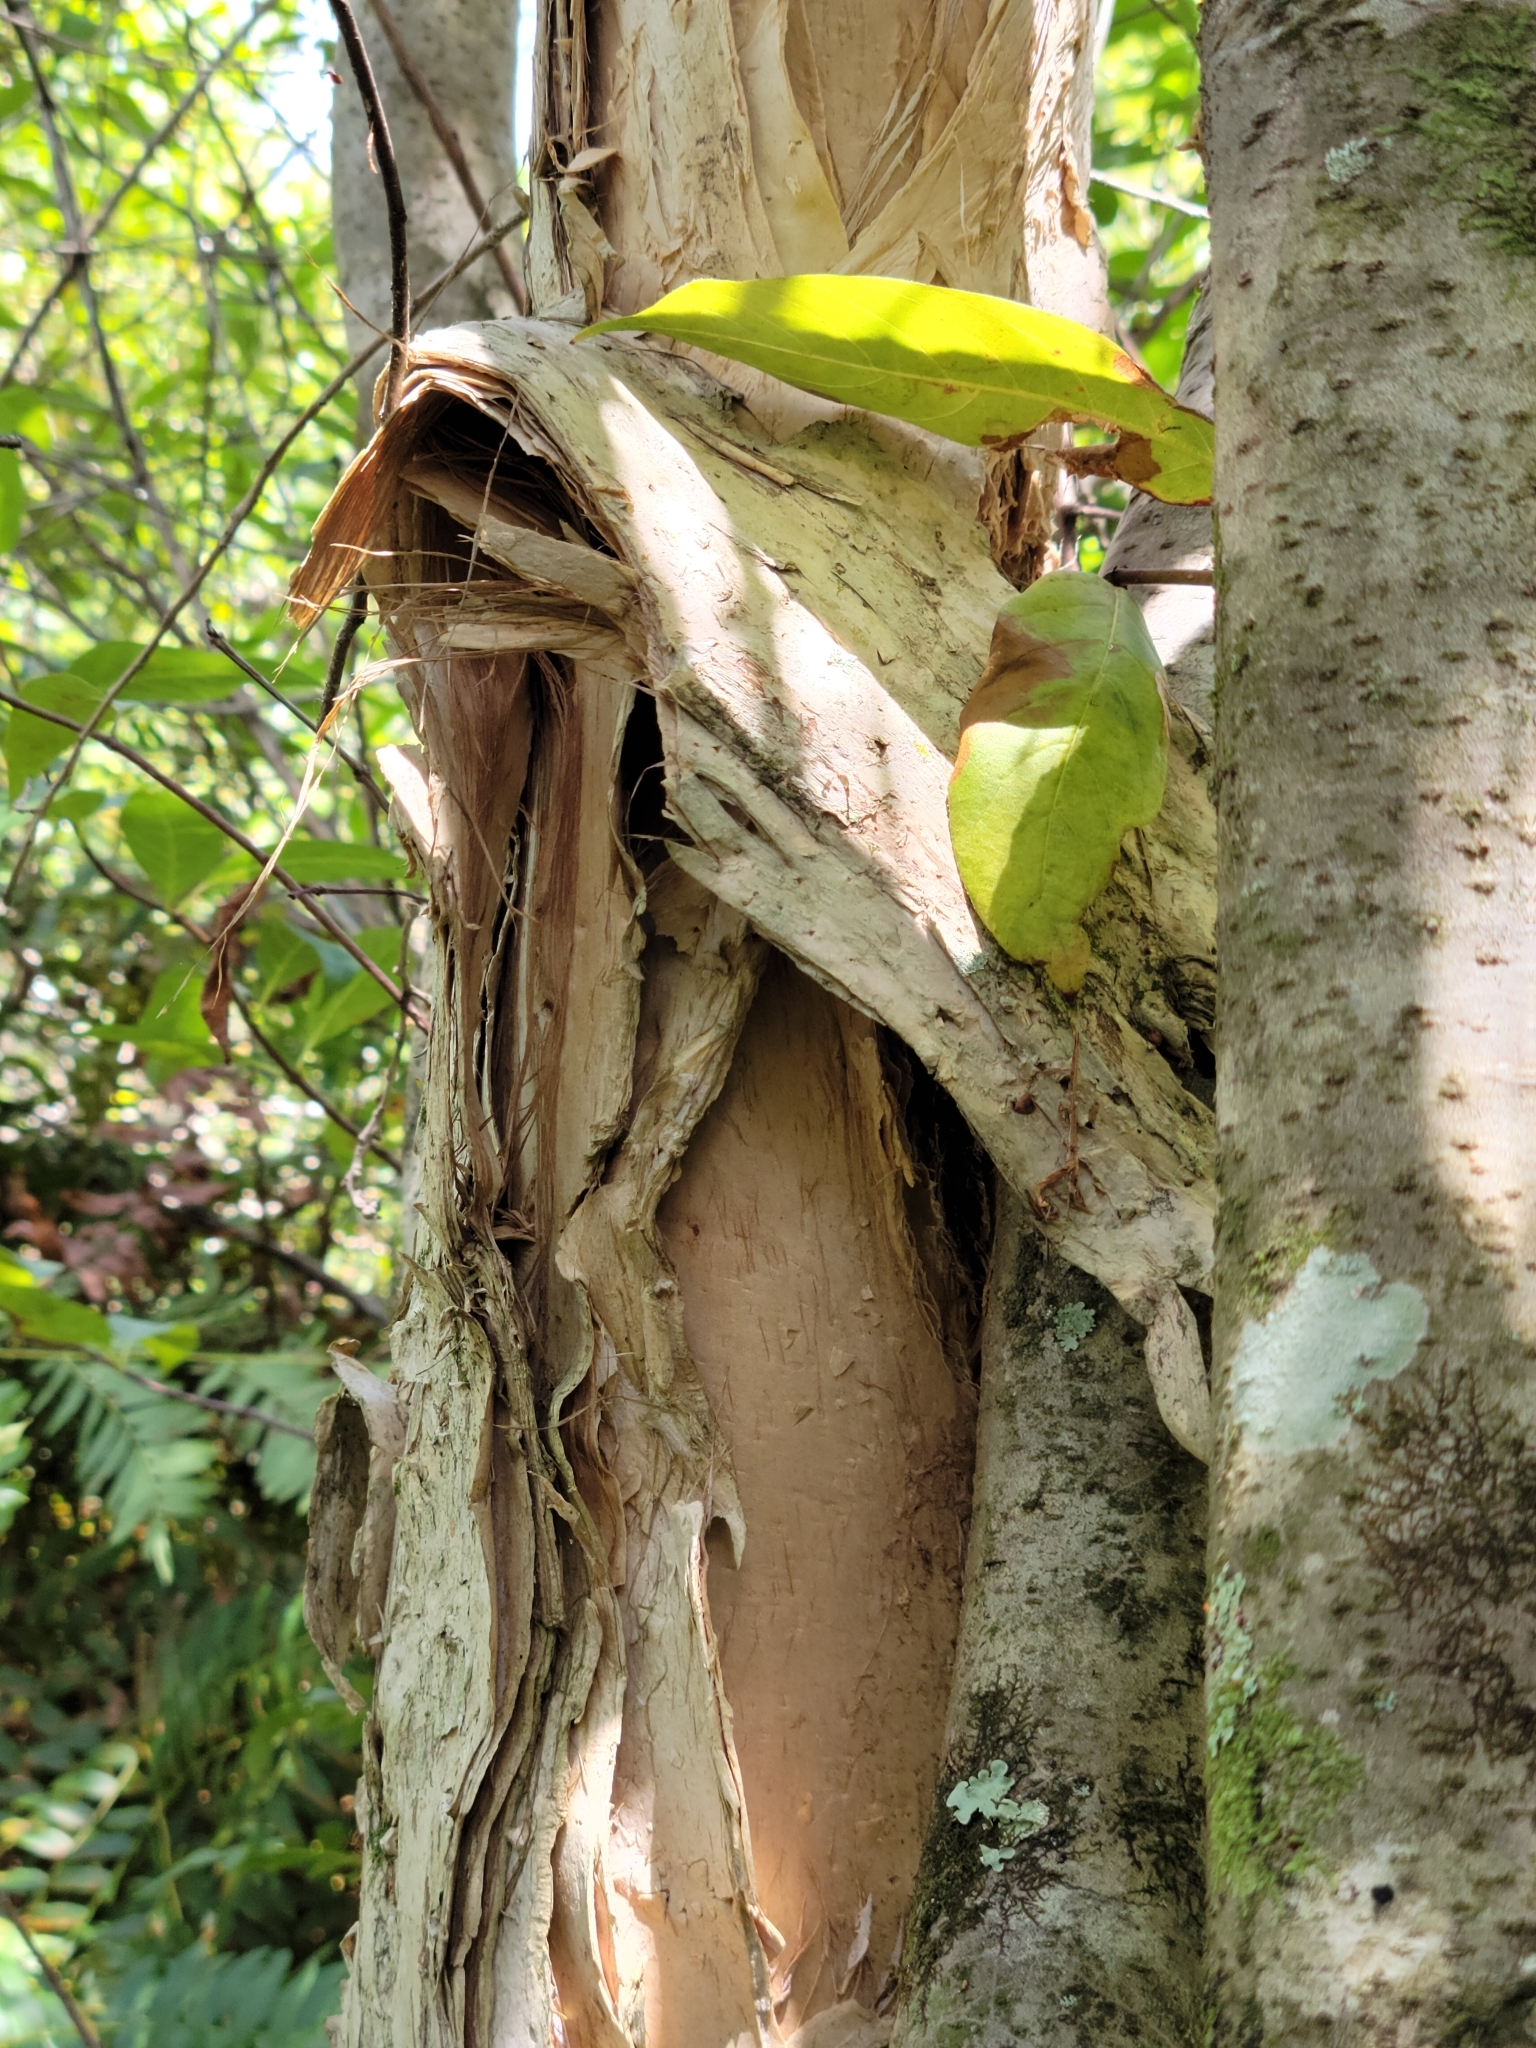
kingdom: Plantae
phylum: Tracheophyta
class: Magnoliopsida
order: Myrtales
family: Myrtaceae
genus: Melaleuca
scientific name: Melaleuca quinquenervia
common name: Punktree
